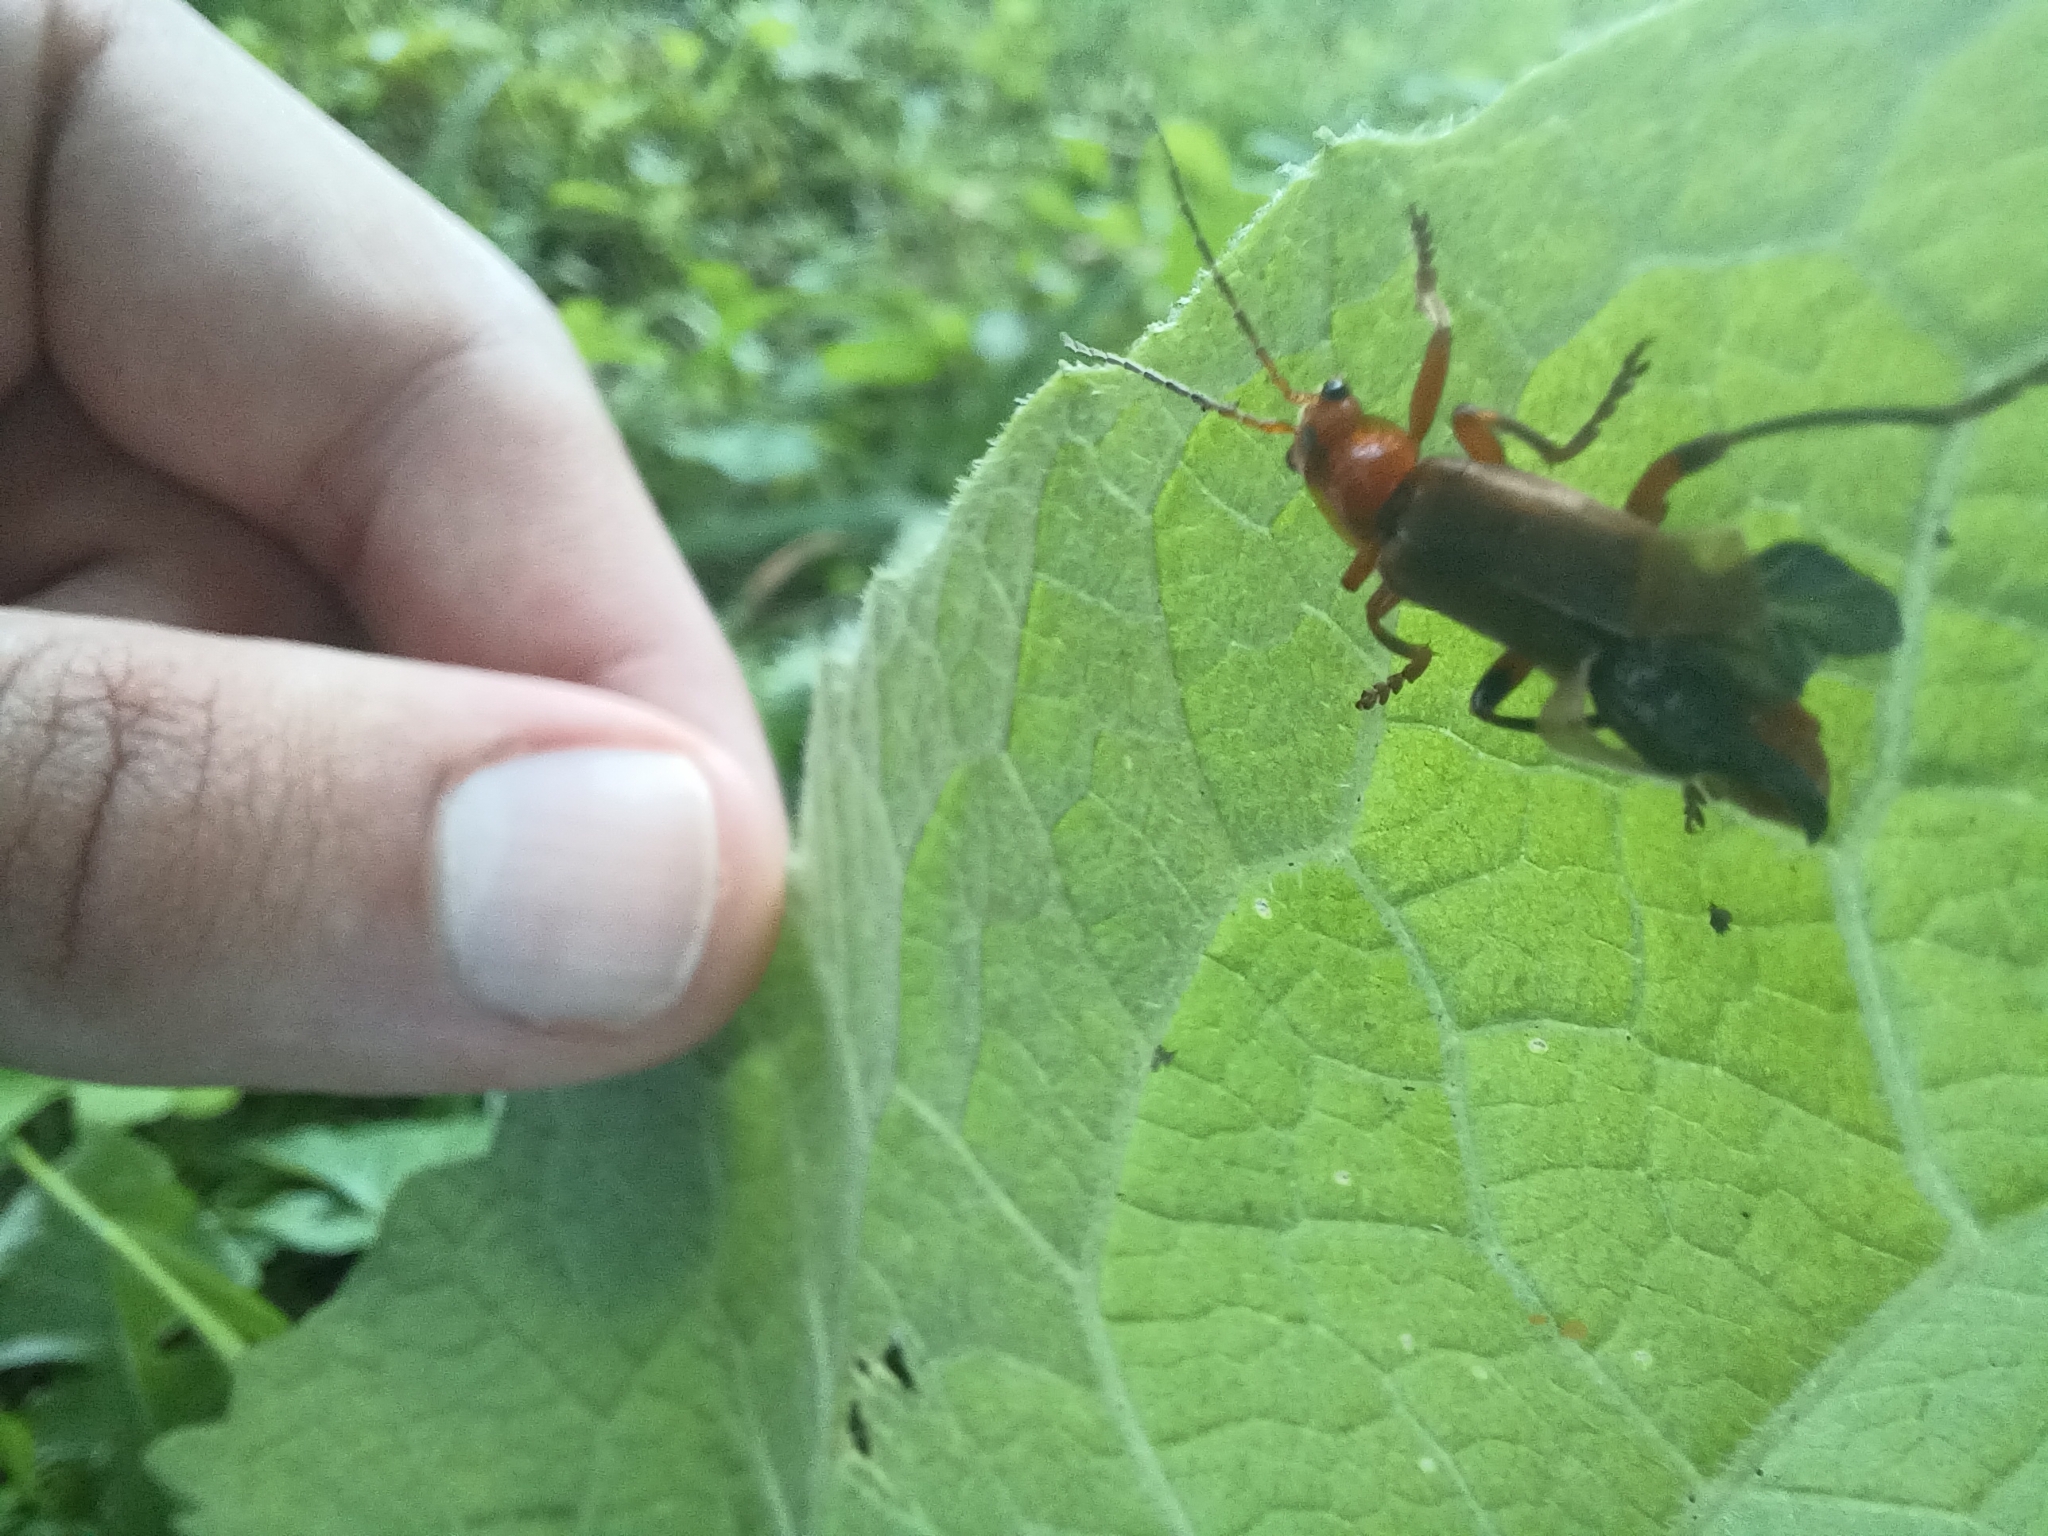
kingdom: Animalia
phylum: Arthropoda
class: Insecta
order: Coleoptera
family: Cantharidae
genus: Cantharis
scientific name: Cantharis livida
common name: Livid soldier beetle
